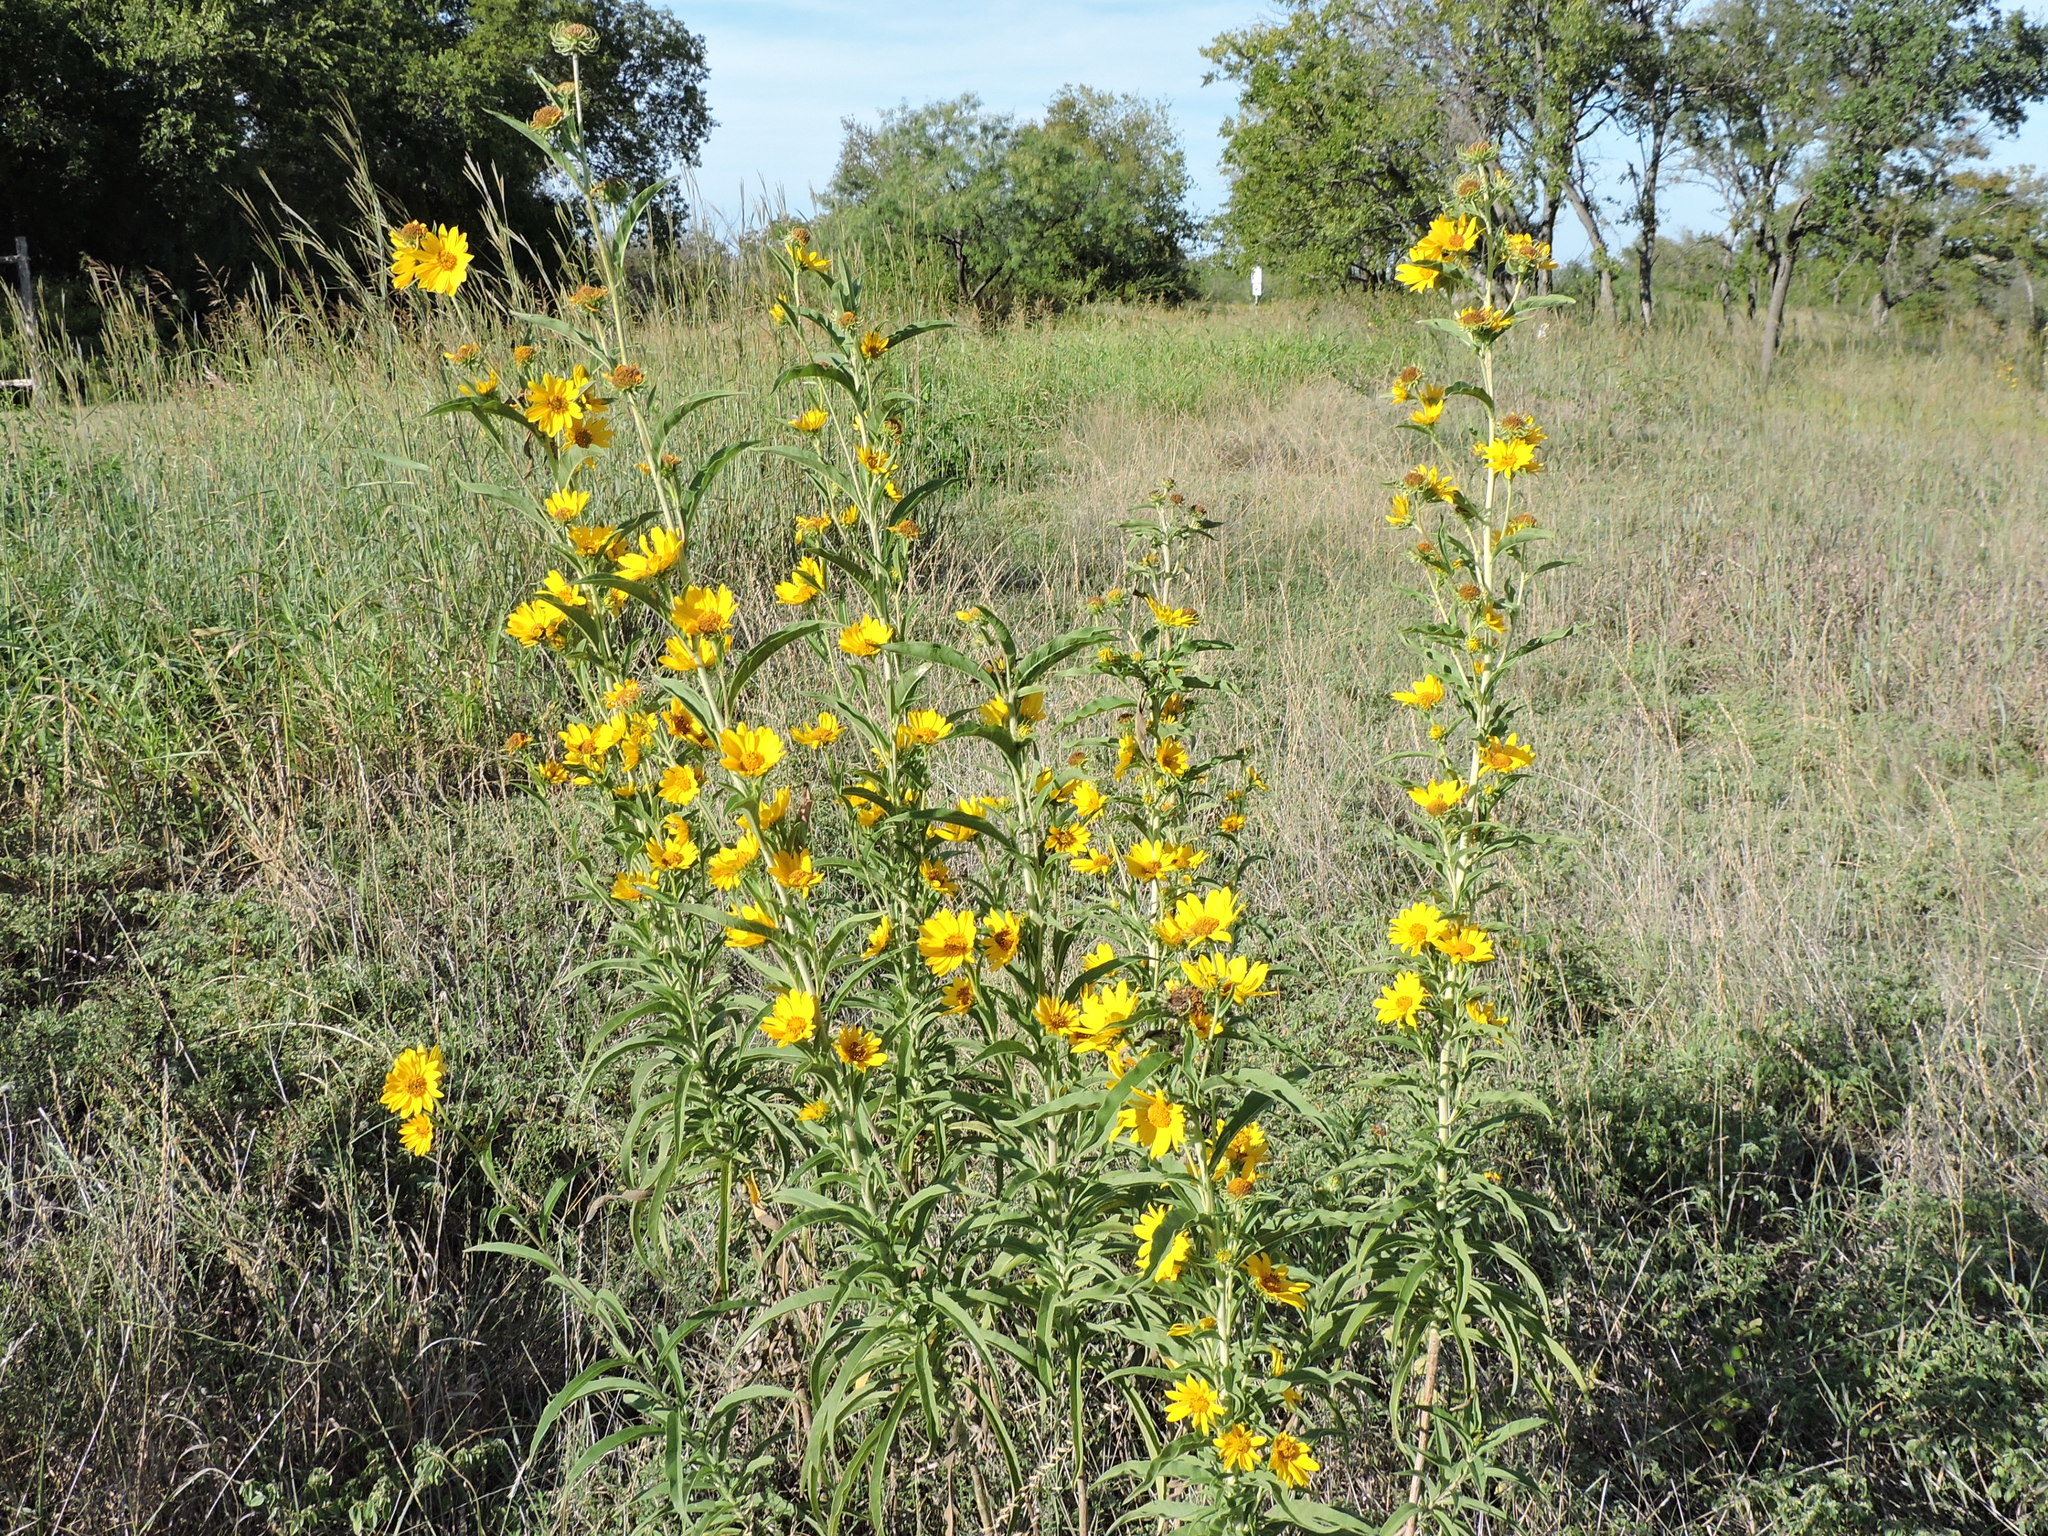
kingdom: Plantae
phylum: Tracheophyta
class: Magnoliopsida
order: Asterales
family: Asteraceae
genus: Helianthus
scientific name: Helianthus maximiliani
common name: Maximilian's sunflower
